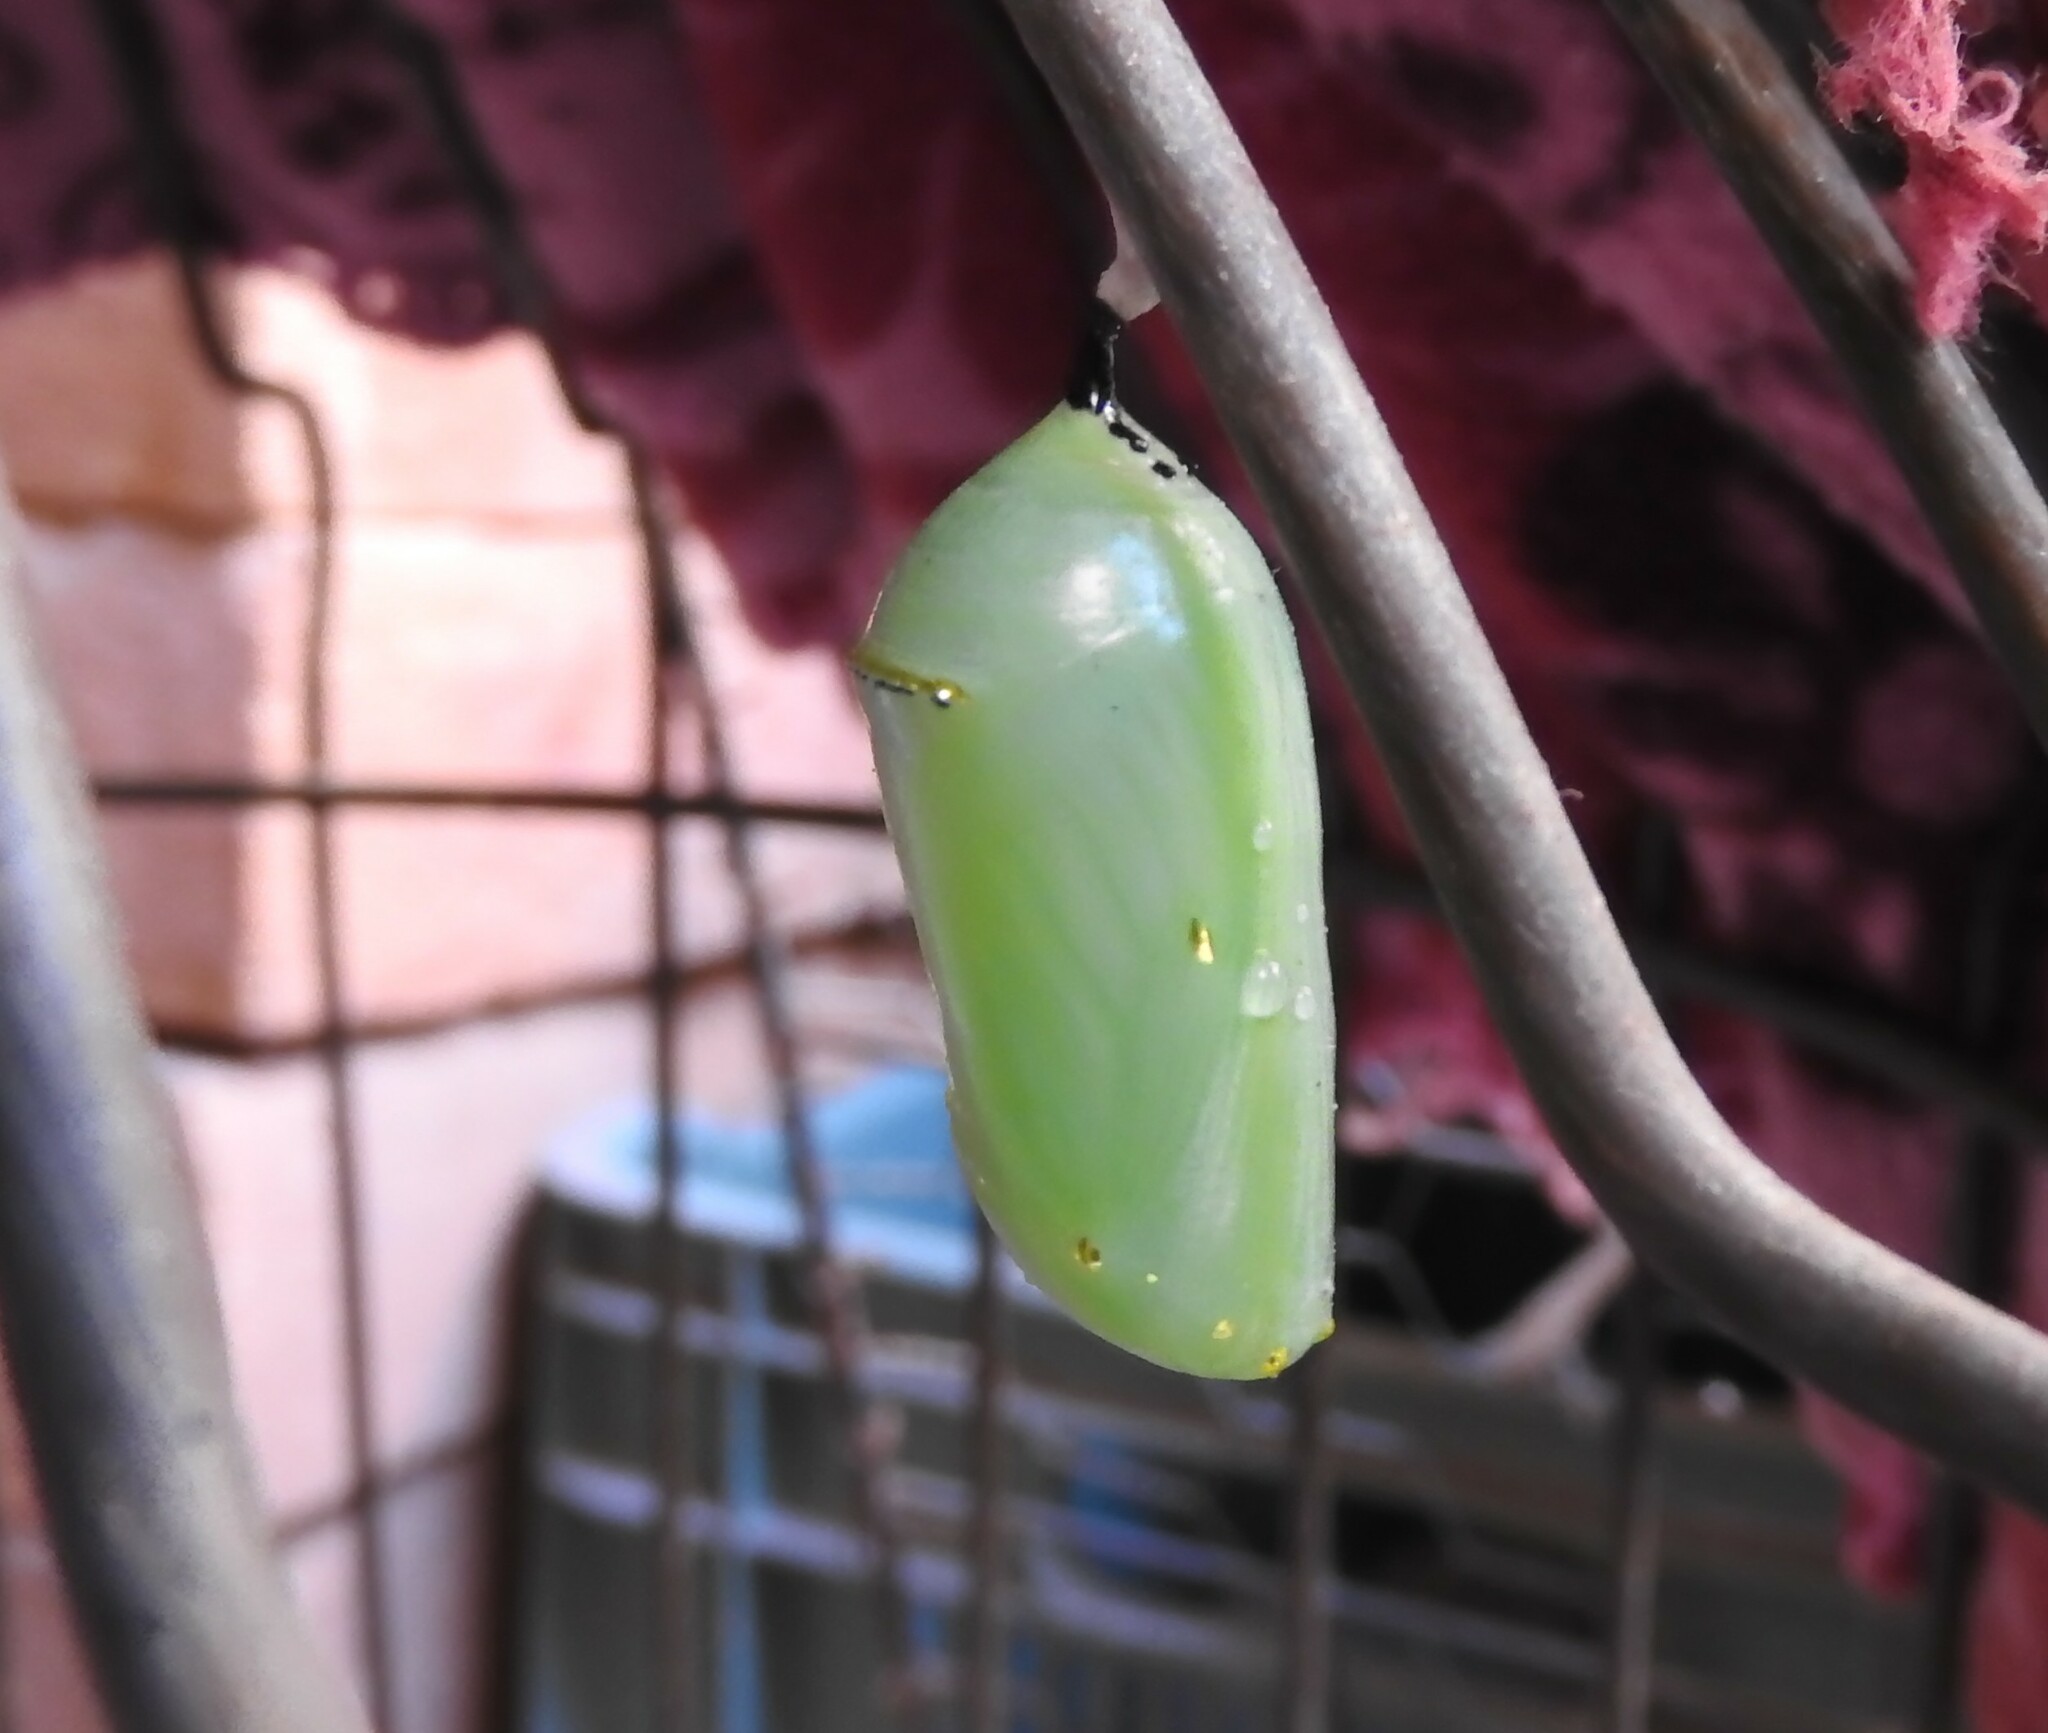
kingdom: Animalia
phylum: Arthropoda
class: Insecta
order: Lepidoptera
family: Nymphalidae
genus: Danaus
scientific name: Danaus plexippus
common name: Monarch
